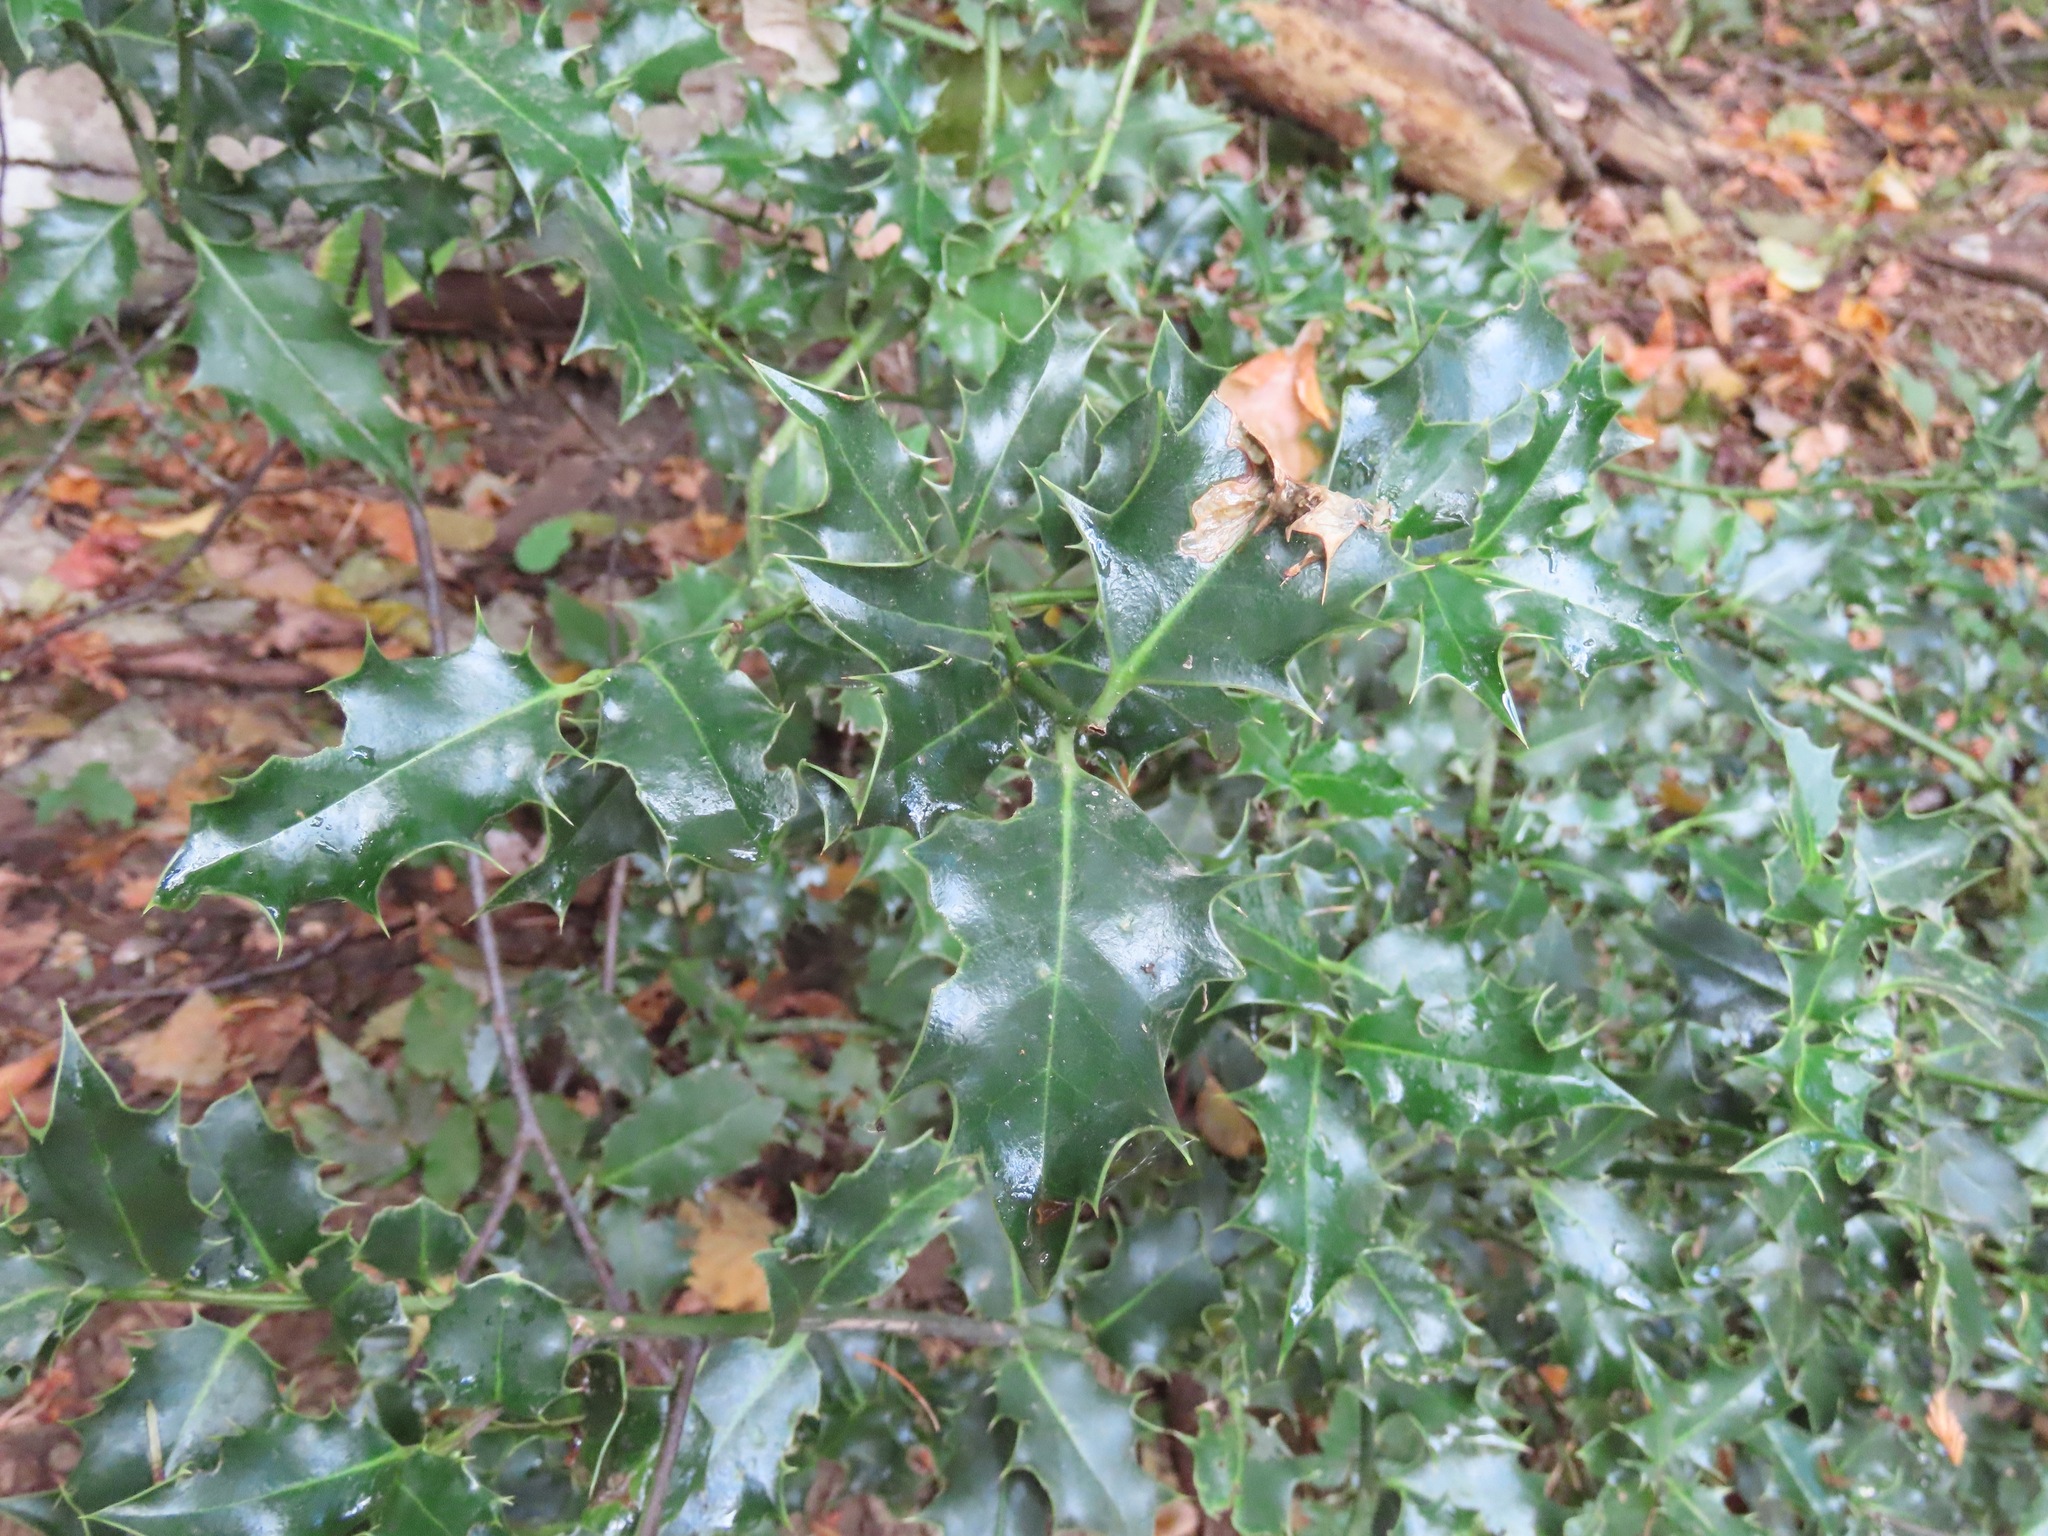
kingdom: Plantae
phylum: Tracheophyta
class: Magnoliopsida
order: Aquifoliales
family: Aquifoliaceae
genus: Ilex
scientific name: Ilex aquifolium
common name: English holly
